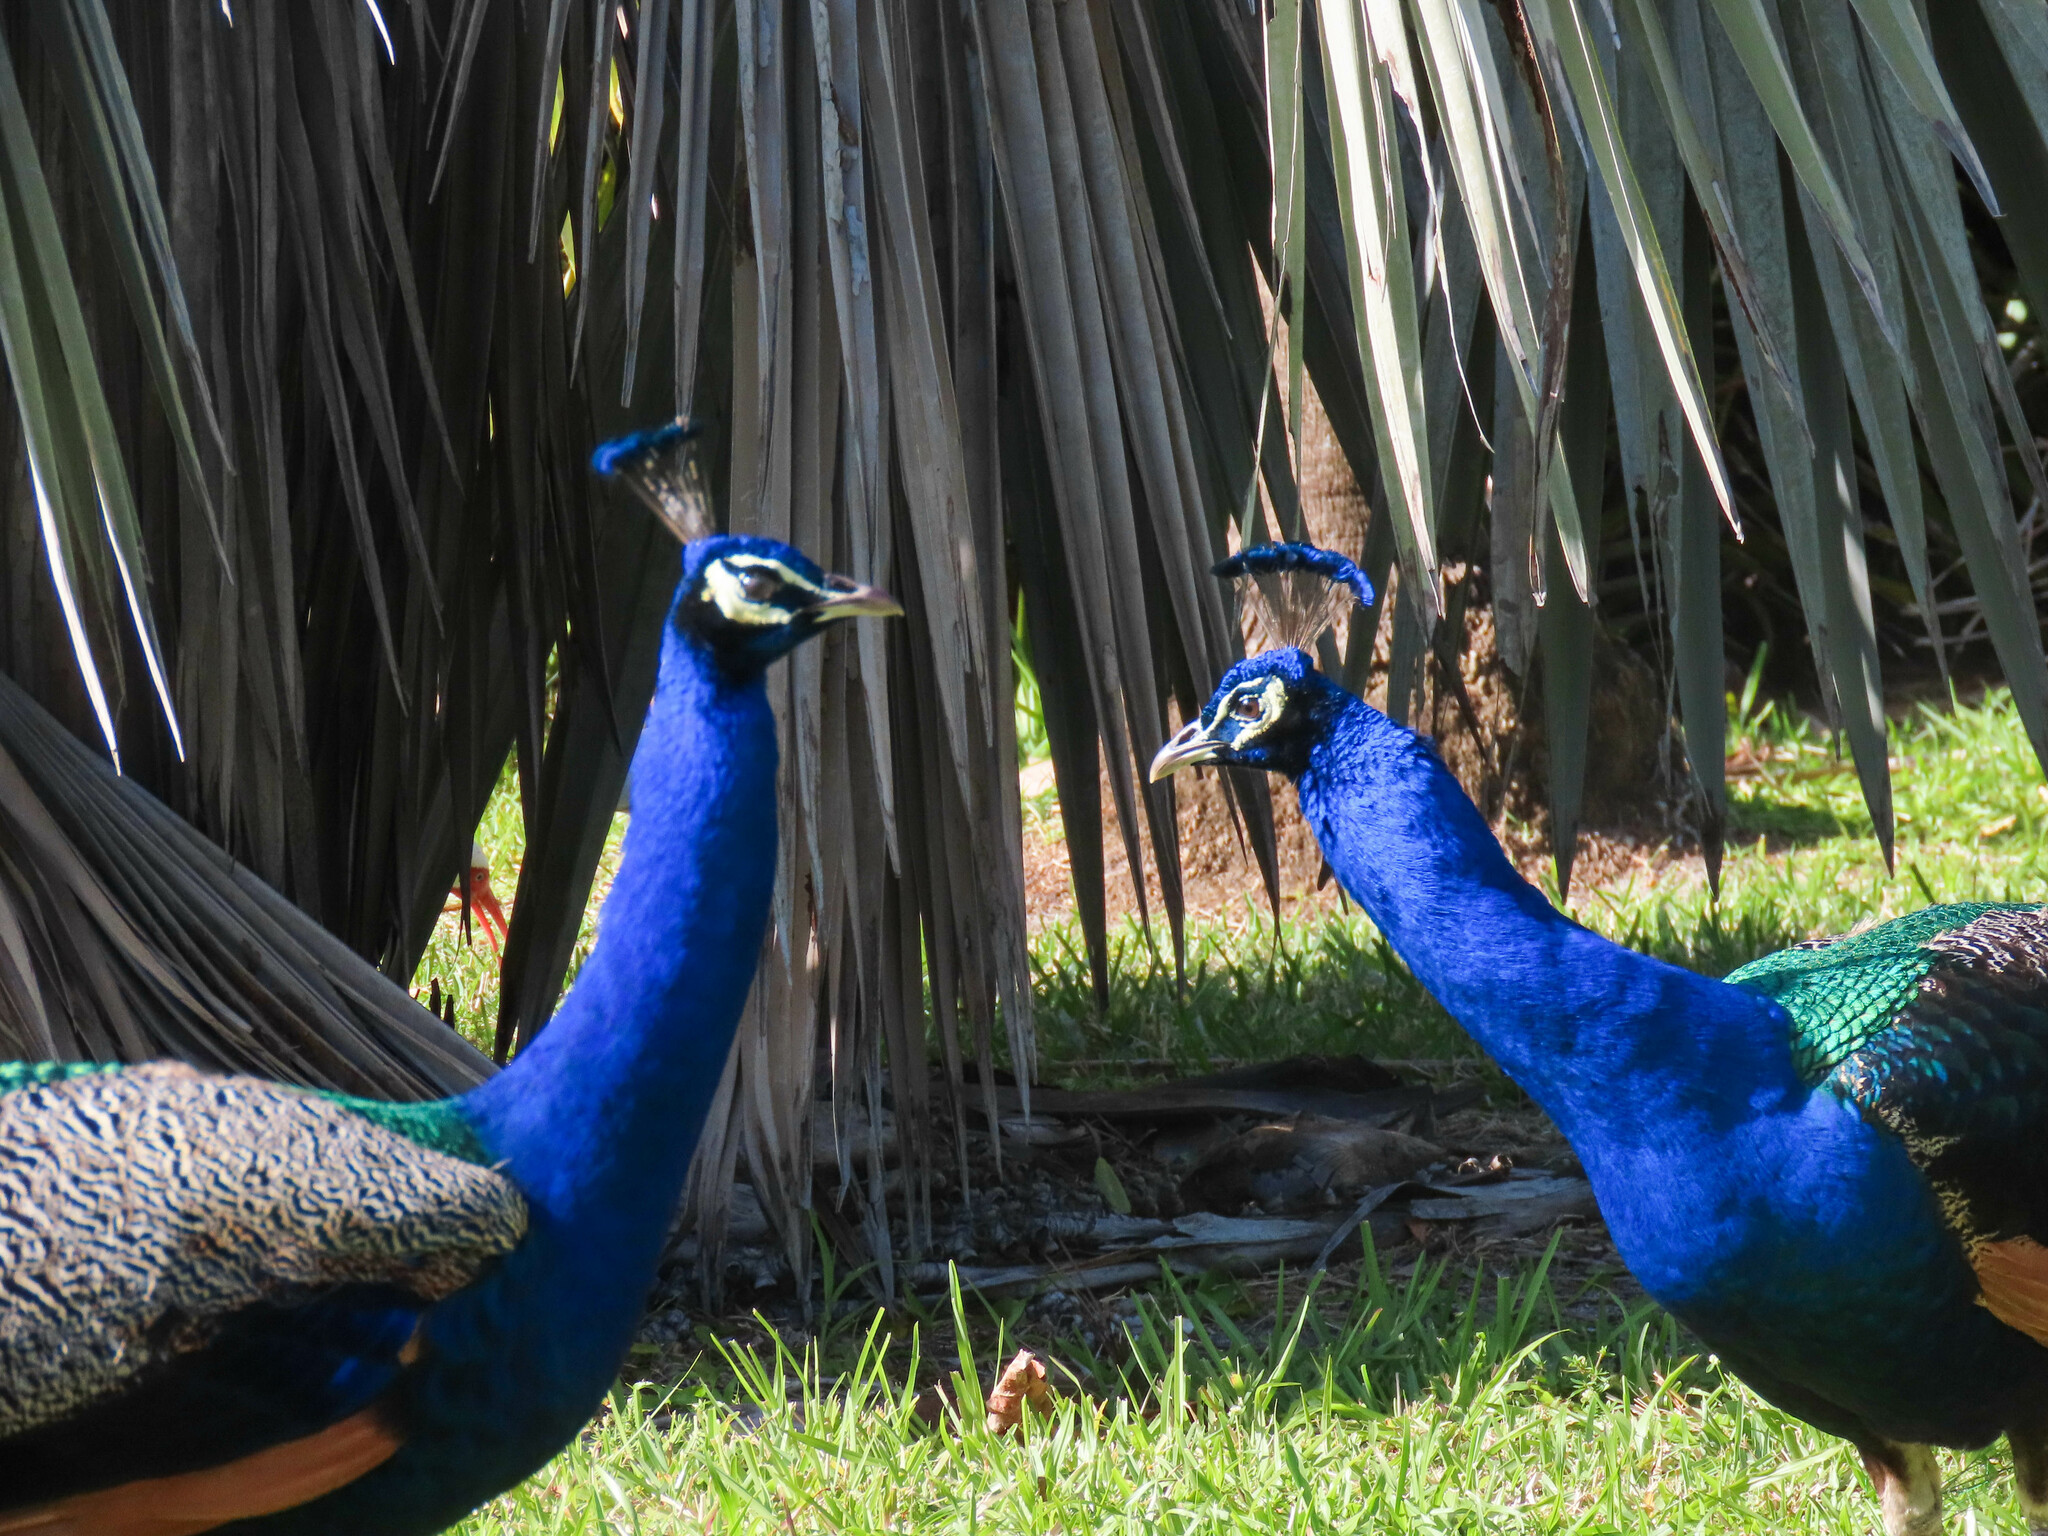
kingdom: Animalia
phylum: Chordata
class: Aves
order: Galliformes
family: Phasianidae
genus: Pavo
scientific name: Pavo cristatus
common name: Indian peafowl
